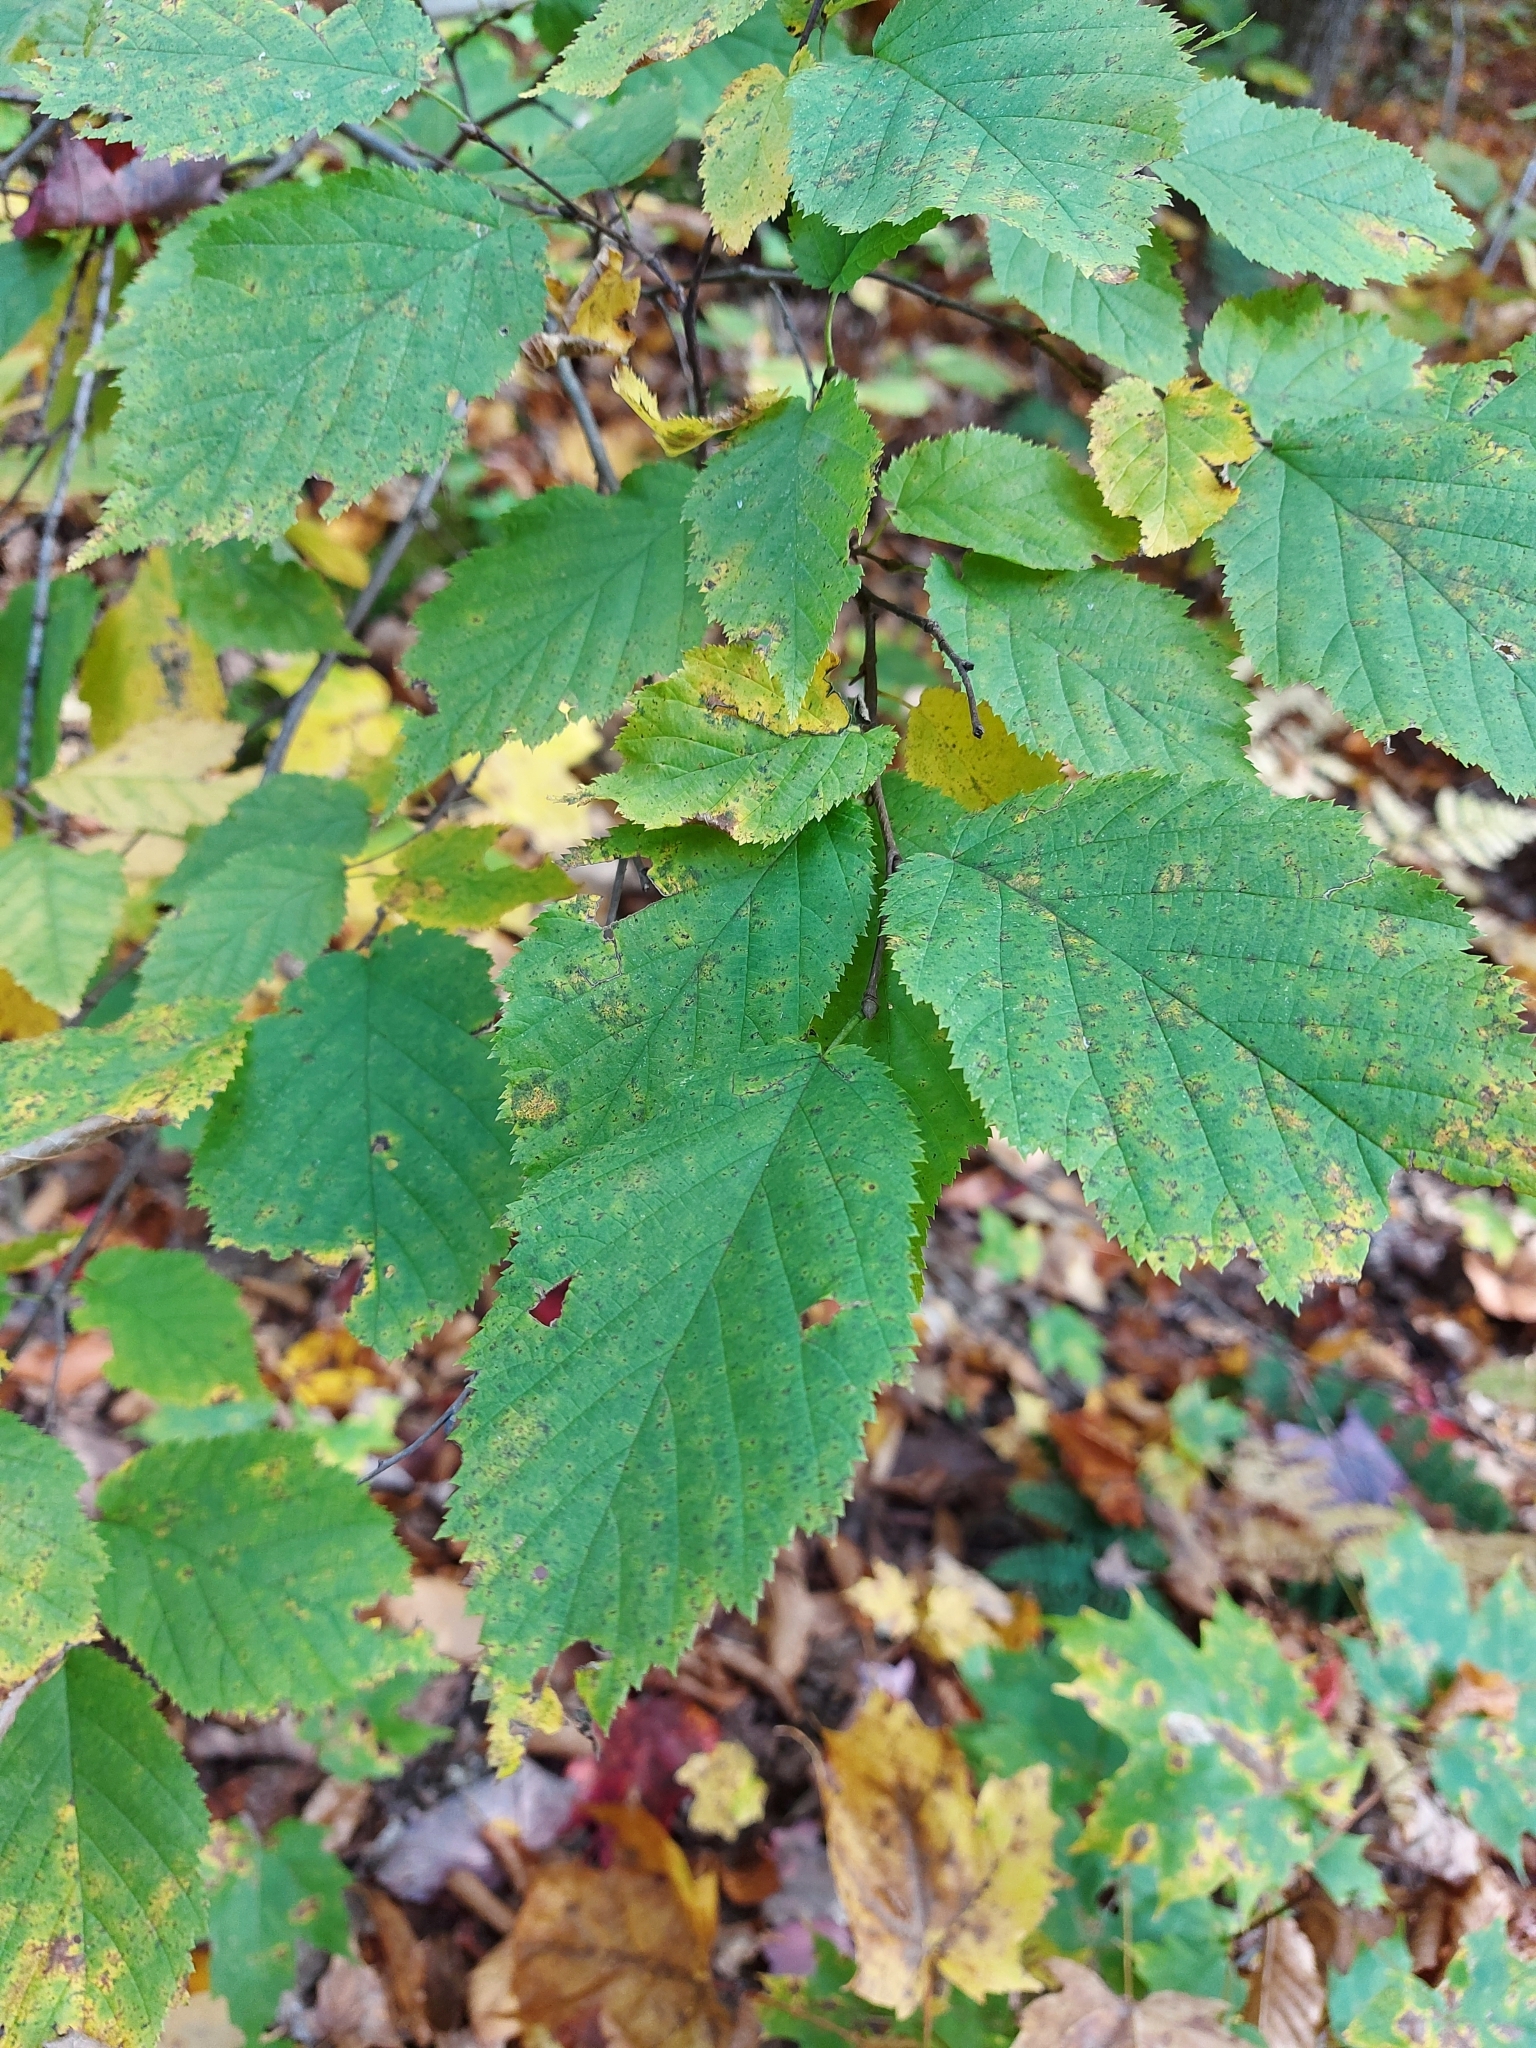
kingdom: Plantae
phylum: Tracheophyta
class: Magnoliopsida
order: Fagales
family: Betulaceae
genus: Corylus
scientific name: Corylus cornuta
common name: Beaked hazel
